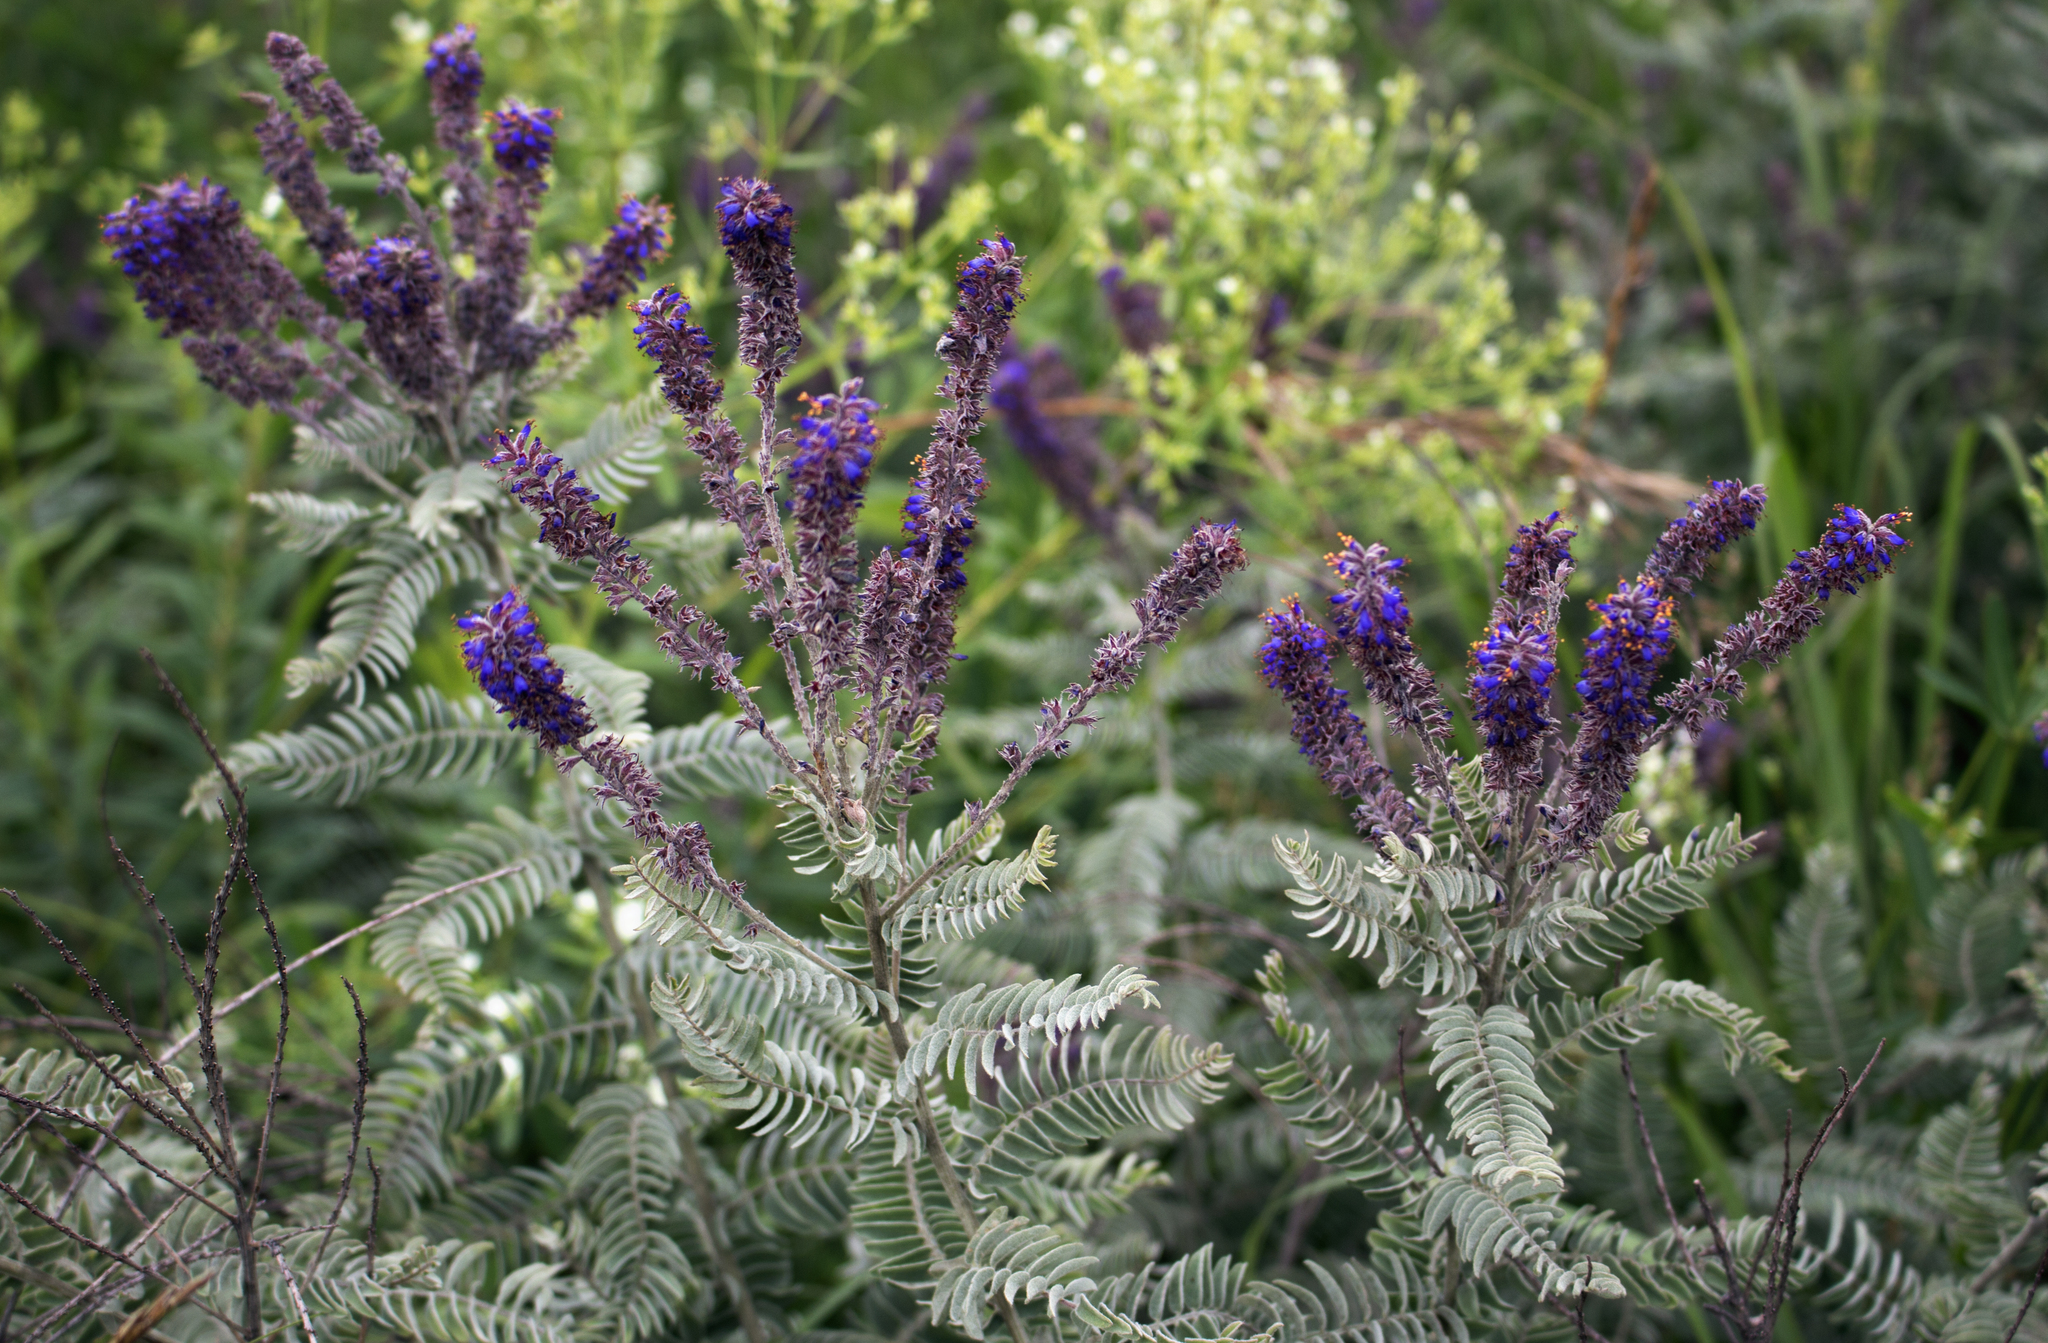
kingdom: Plantae
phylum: Tracheophyta
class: Magnoliopsida
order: Fabales
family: Fabaceae
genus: Amorpha
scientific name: Amorpha canescens
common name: Leadplant
